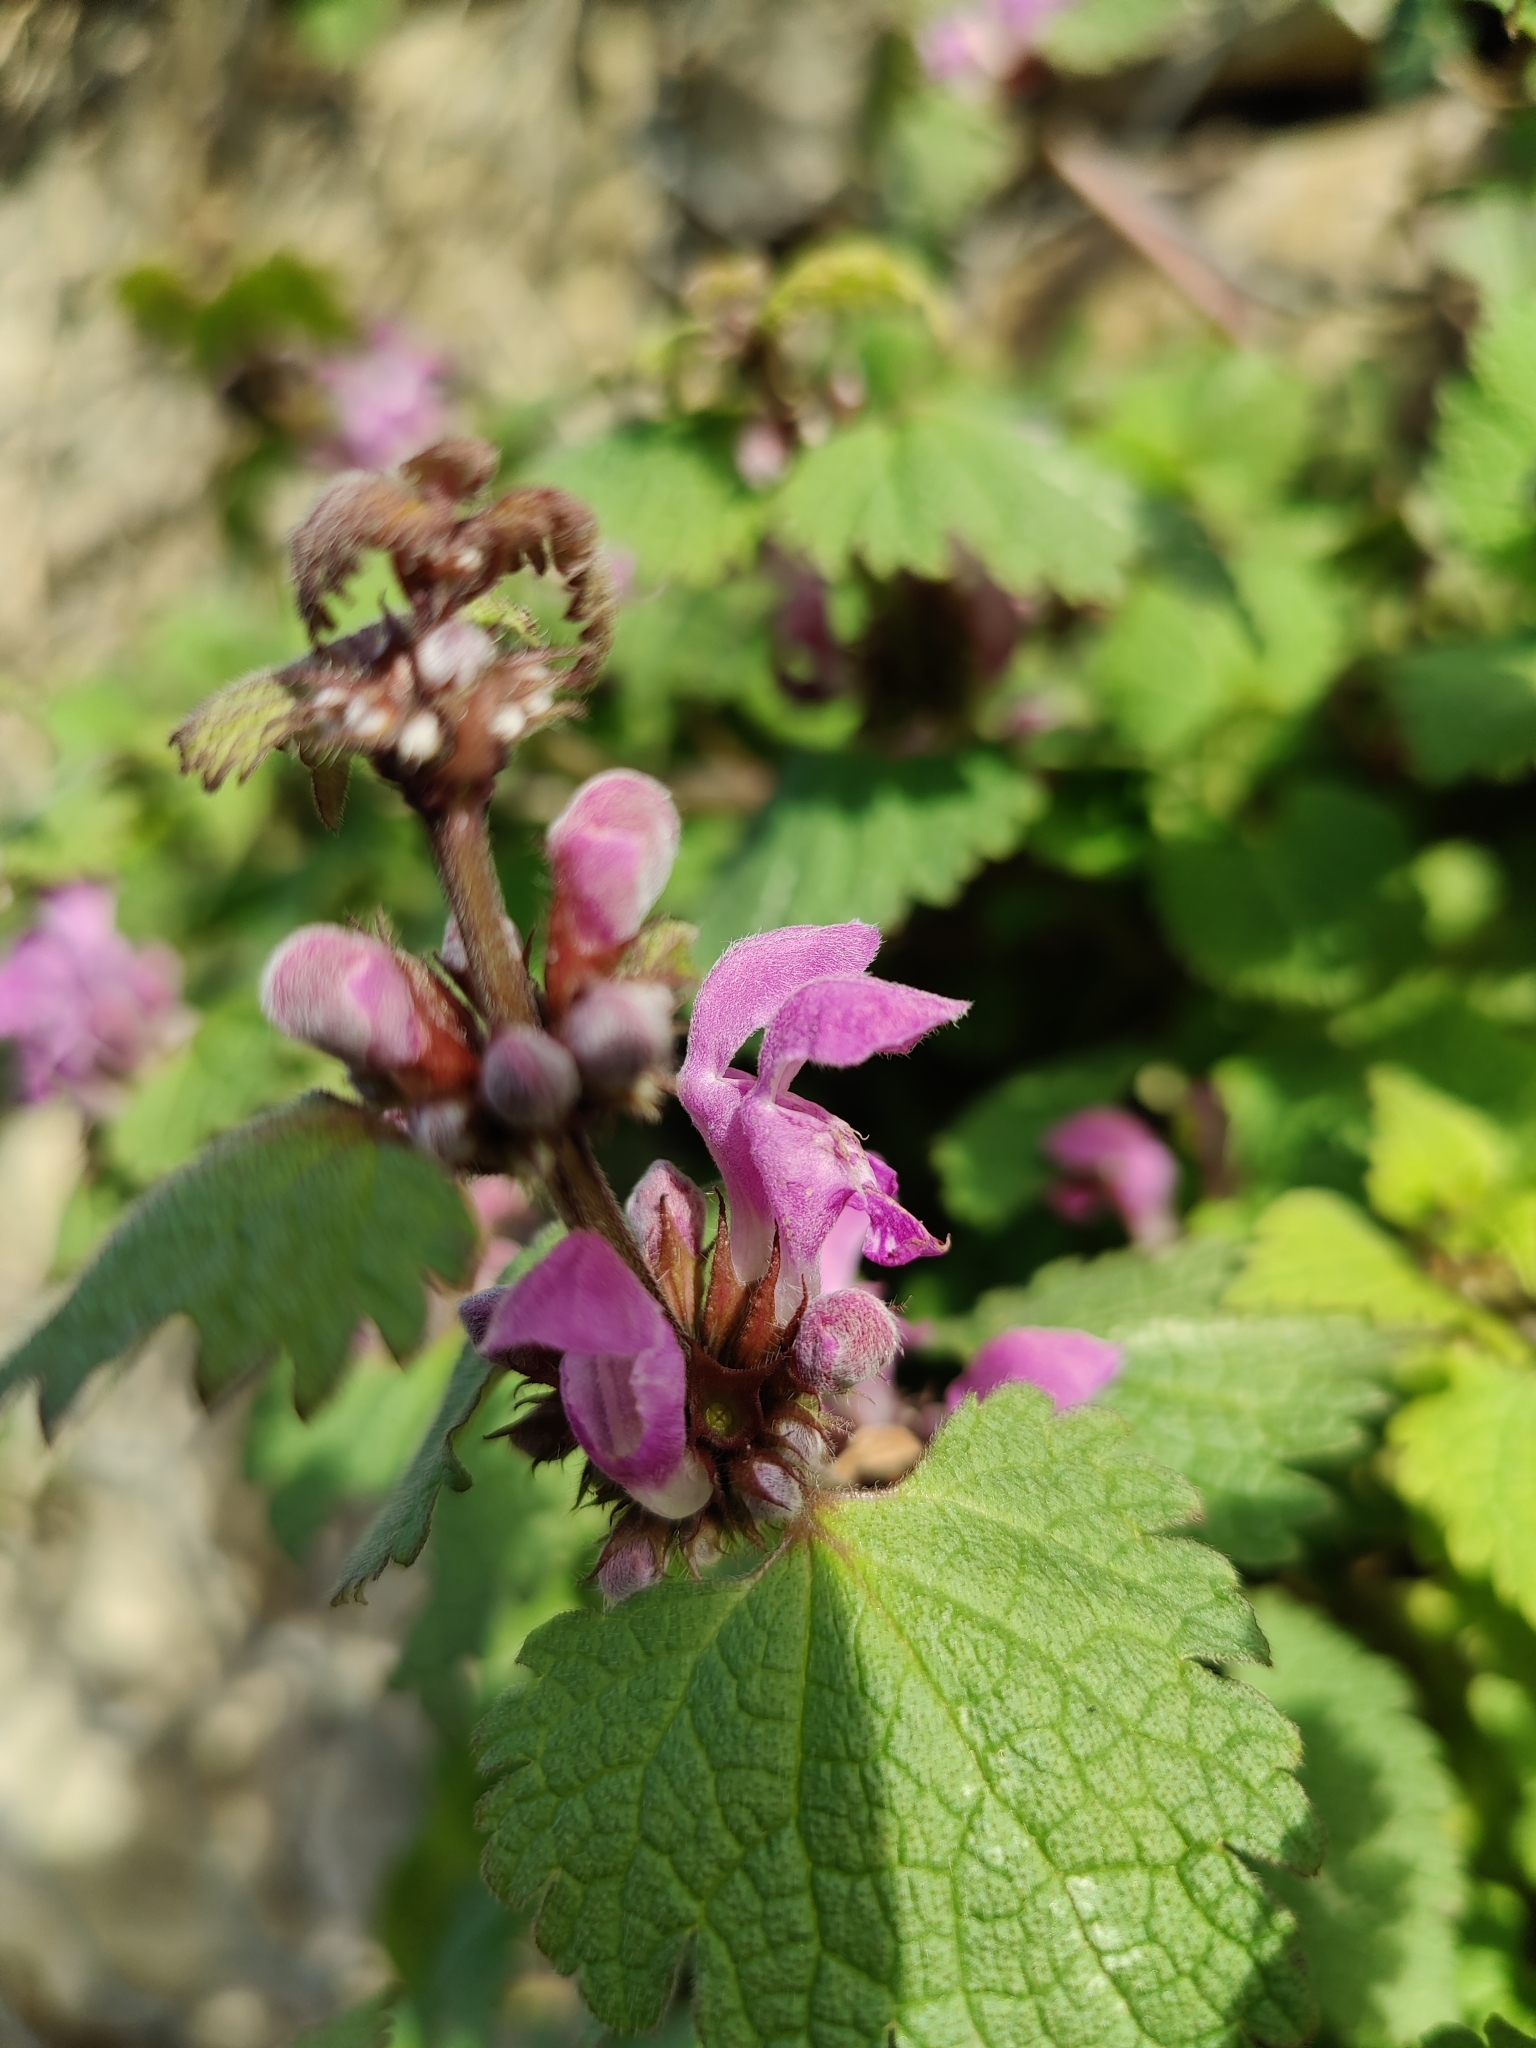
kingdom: Plantae
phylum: Tracheophyta
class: Magnoliopsida
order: Lamiales
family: Lamiaceae
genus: Lamium
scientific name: Lamium maculatum
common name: Spotted dead-nettle
